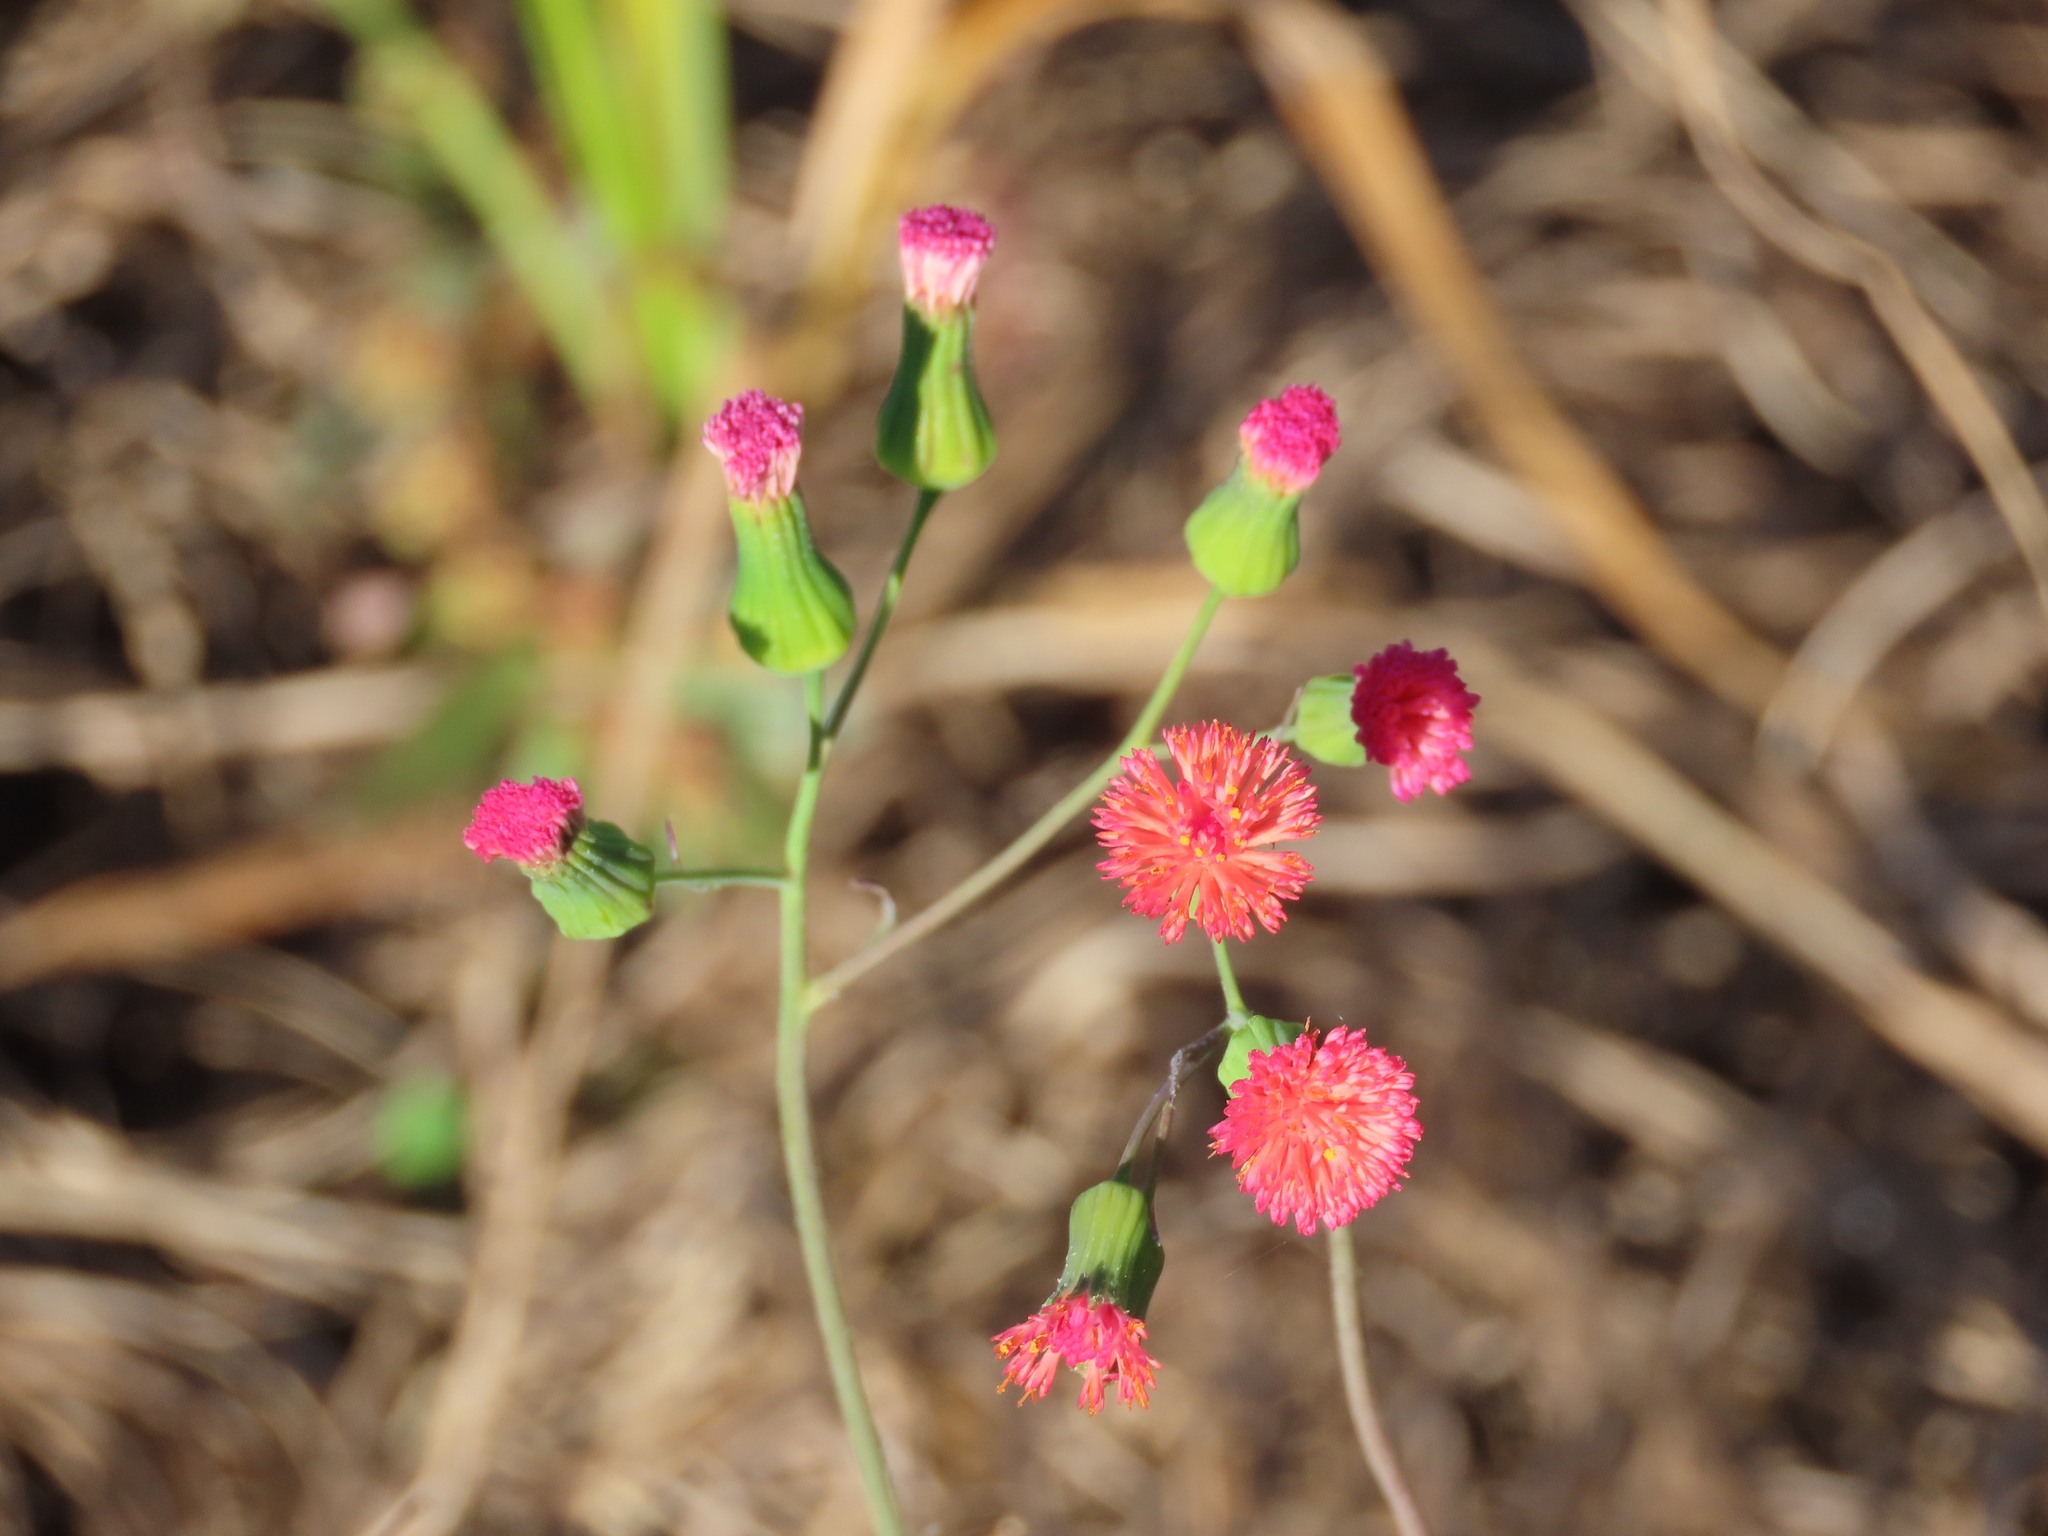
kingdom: Plantae
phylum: Tracheophyta
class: Magnoliopsida
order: Asterales
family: Asteraceae
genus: Emilia
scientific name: Emilia fosbergii
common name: Florida tasselflower
